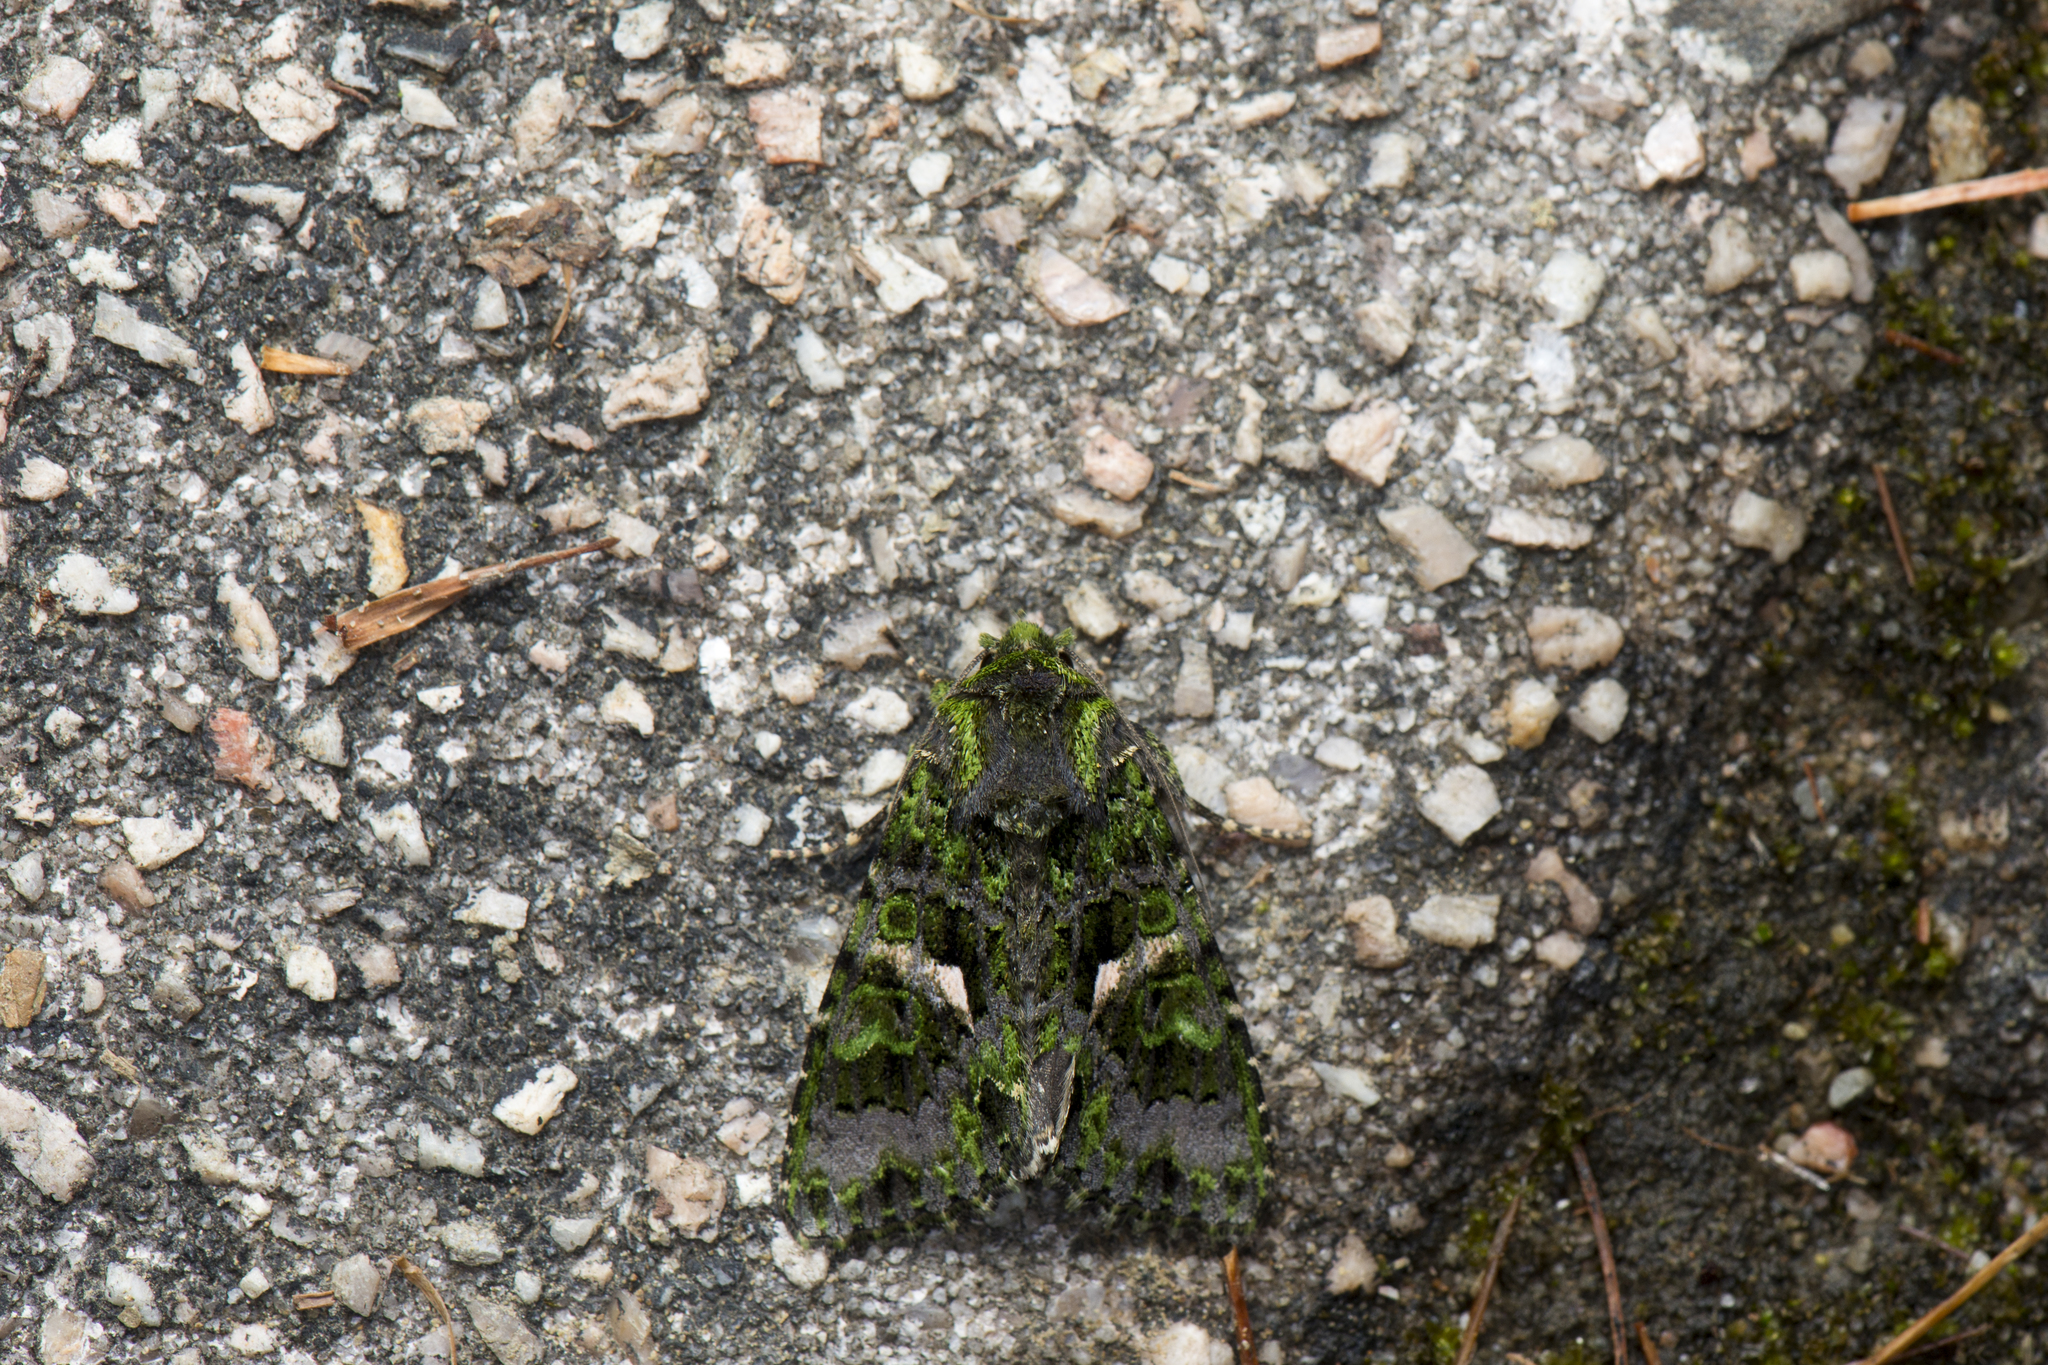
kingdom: Animalia
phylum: Arthropoda
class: Insecta
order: Lepidoptera
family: Noctuidae
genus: Trachea
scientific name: Trachea auriplena
